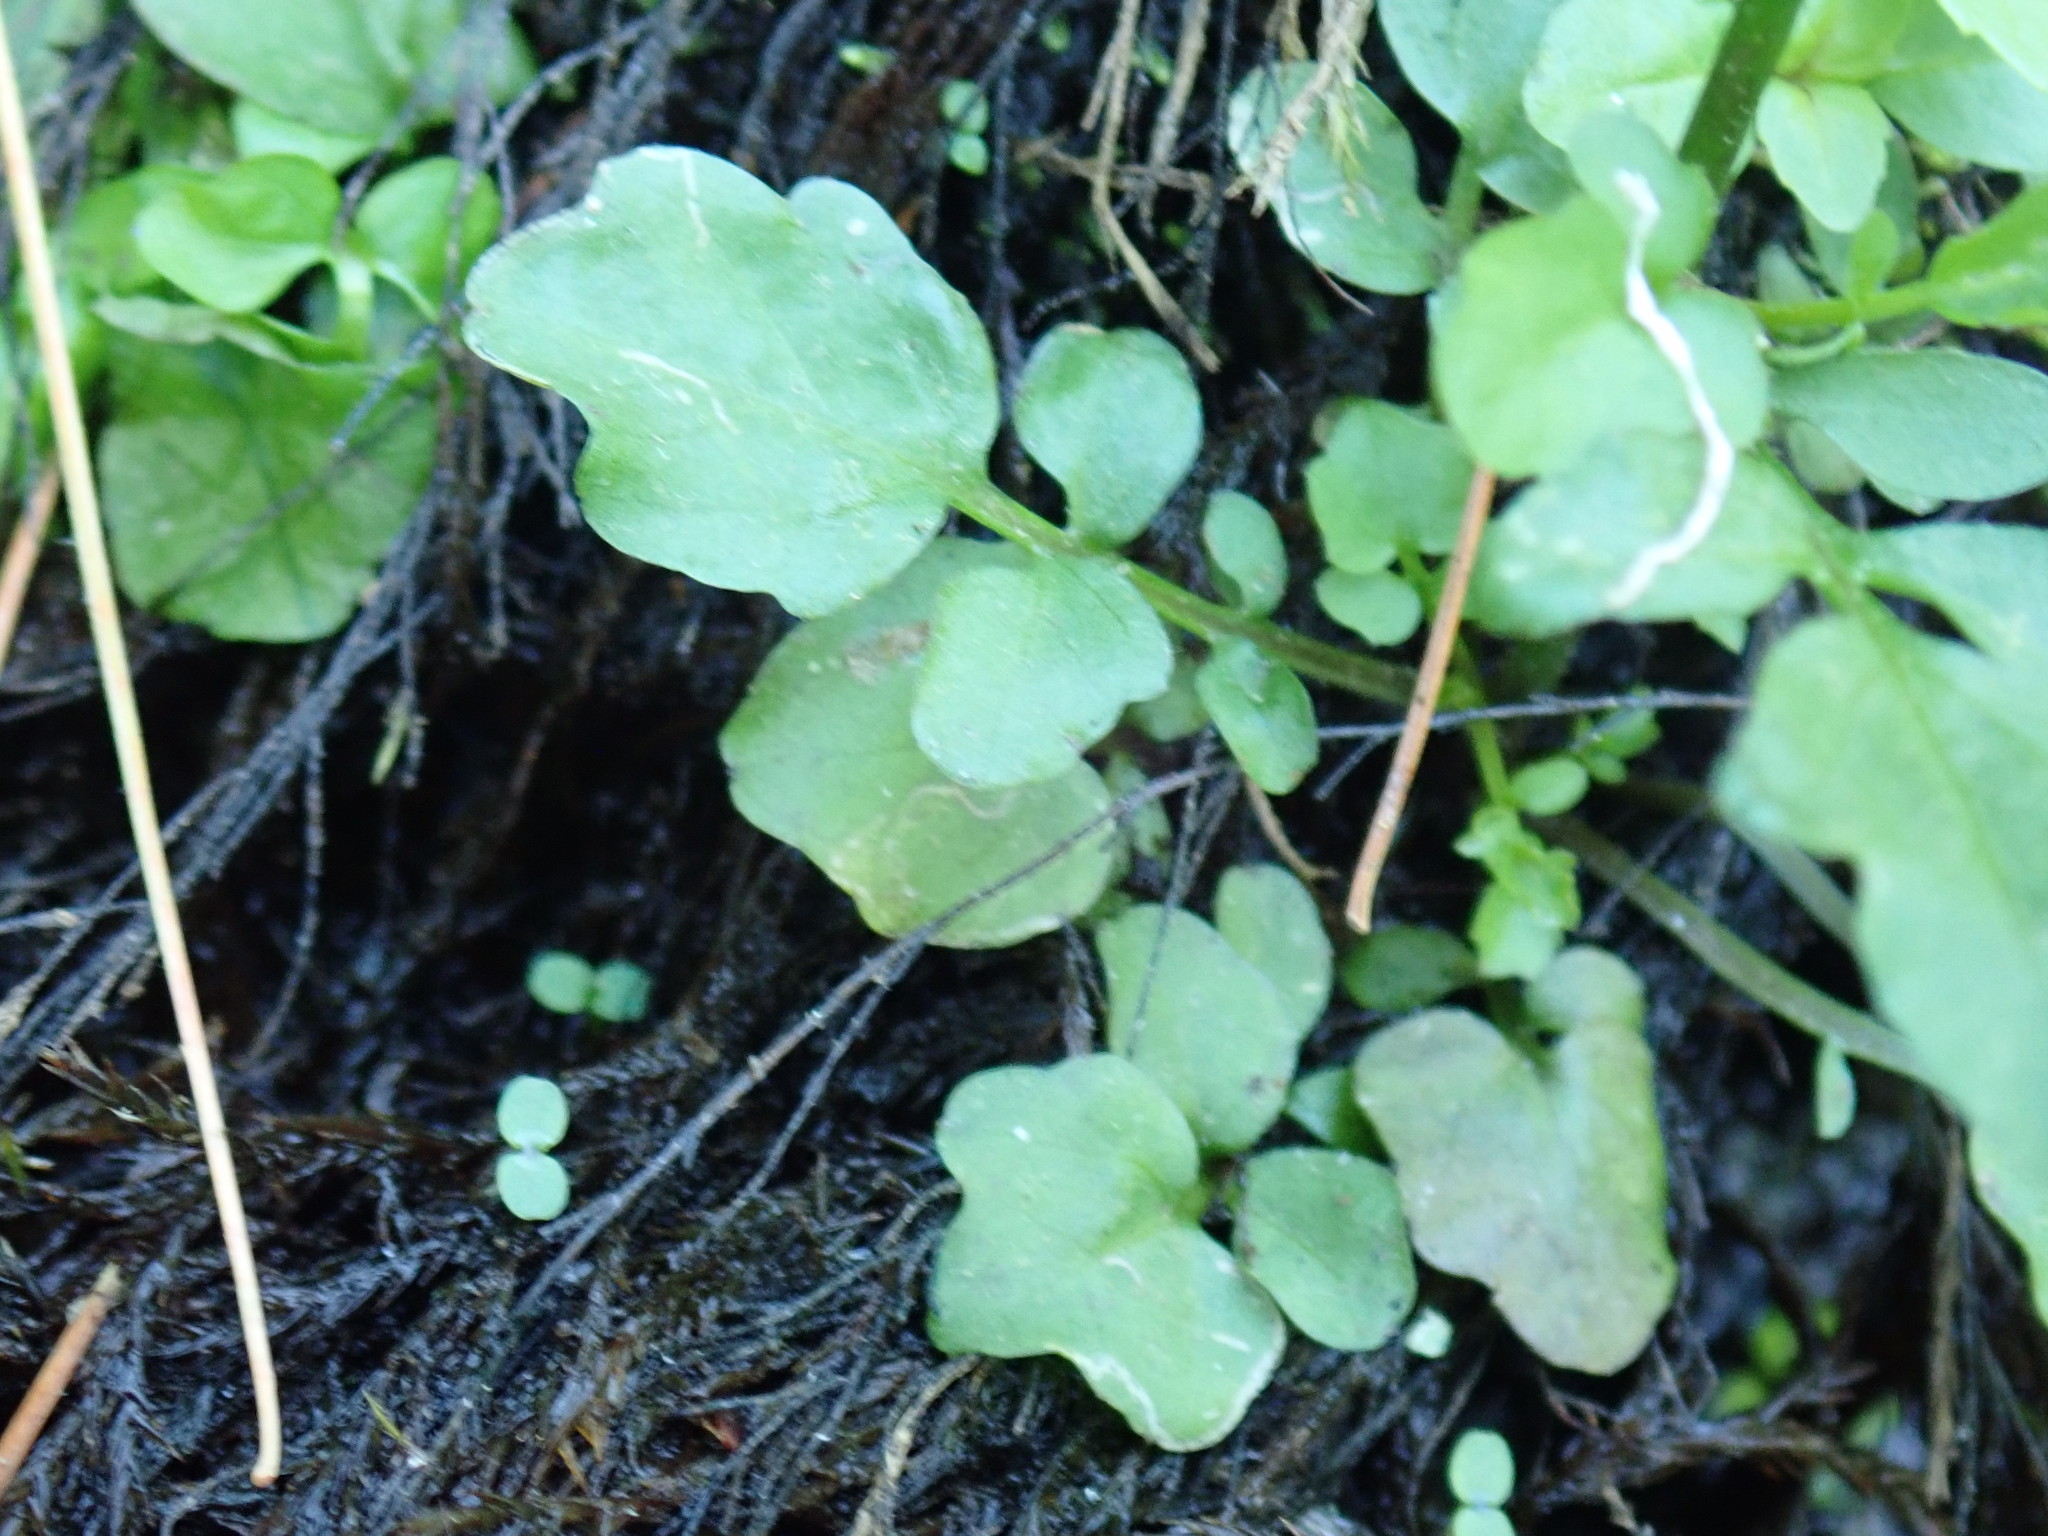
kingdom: Plantae
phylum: Tracheophyta
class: Magnoliopsida
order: Brassicales
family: Brassicaceae
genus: Cardamine
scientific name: Cardamine pensylvanica
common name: Pennsylvania bittercress
